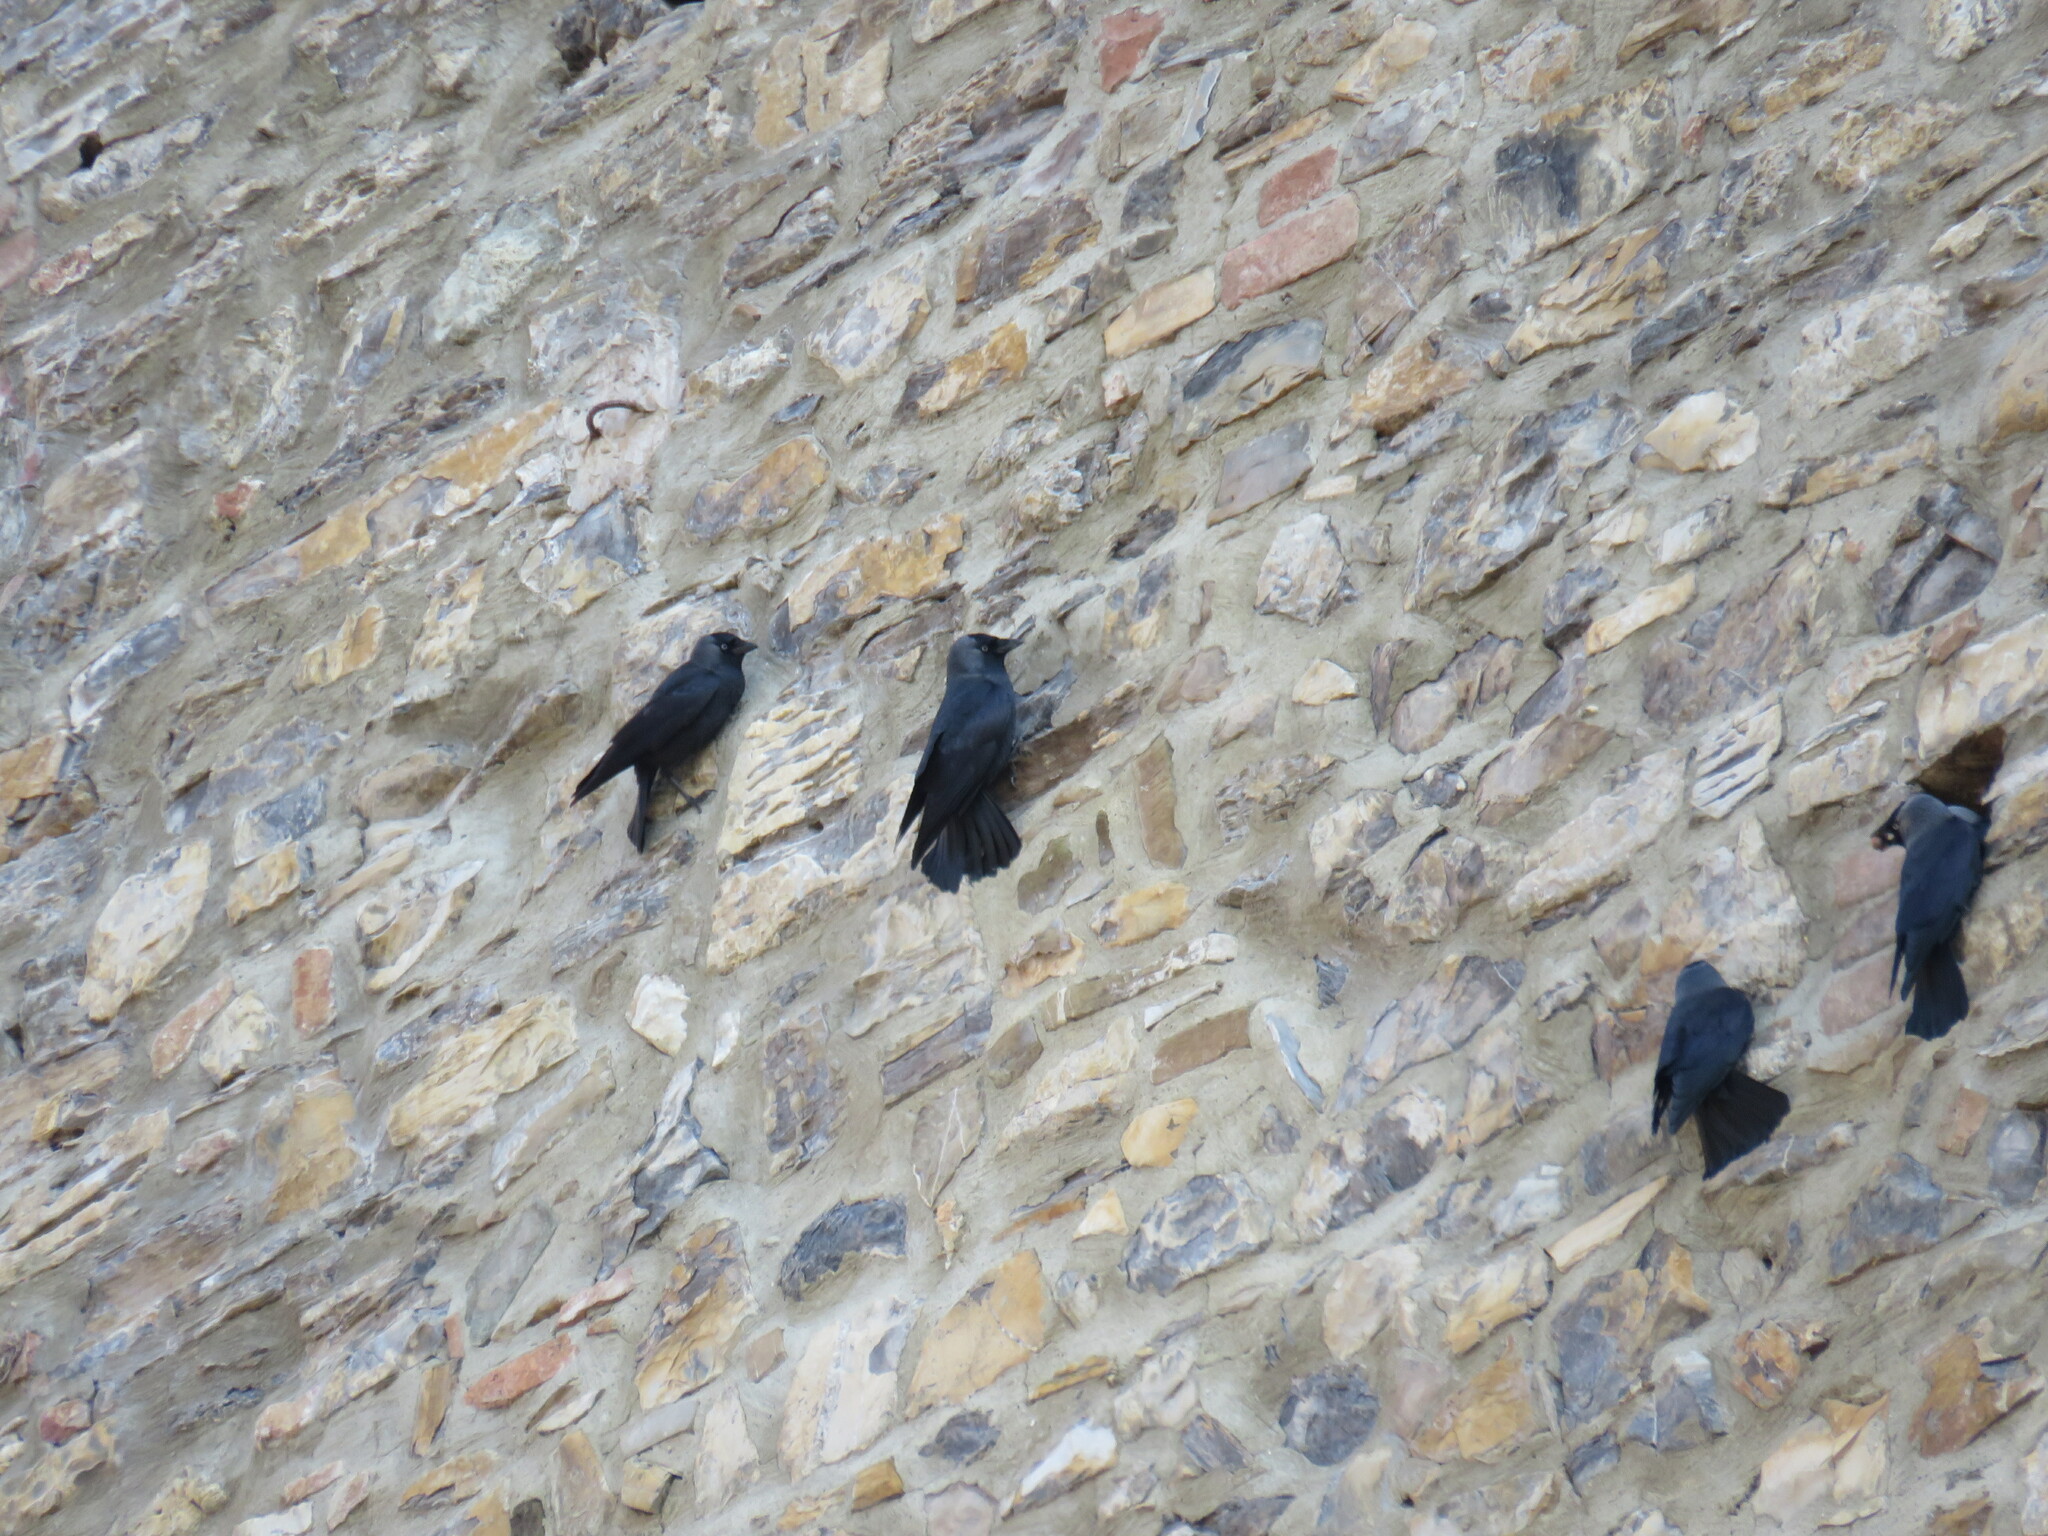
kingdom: Animalia
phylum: Chordata
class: Aves
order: Passeriformes
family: Corvidae
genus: Coloeus
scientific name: Coloeus monedula
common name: Western jackdaw
